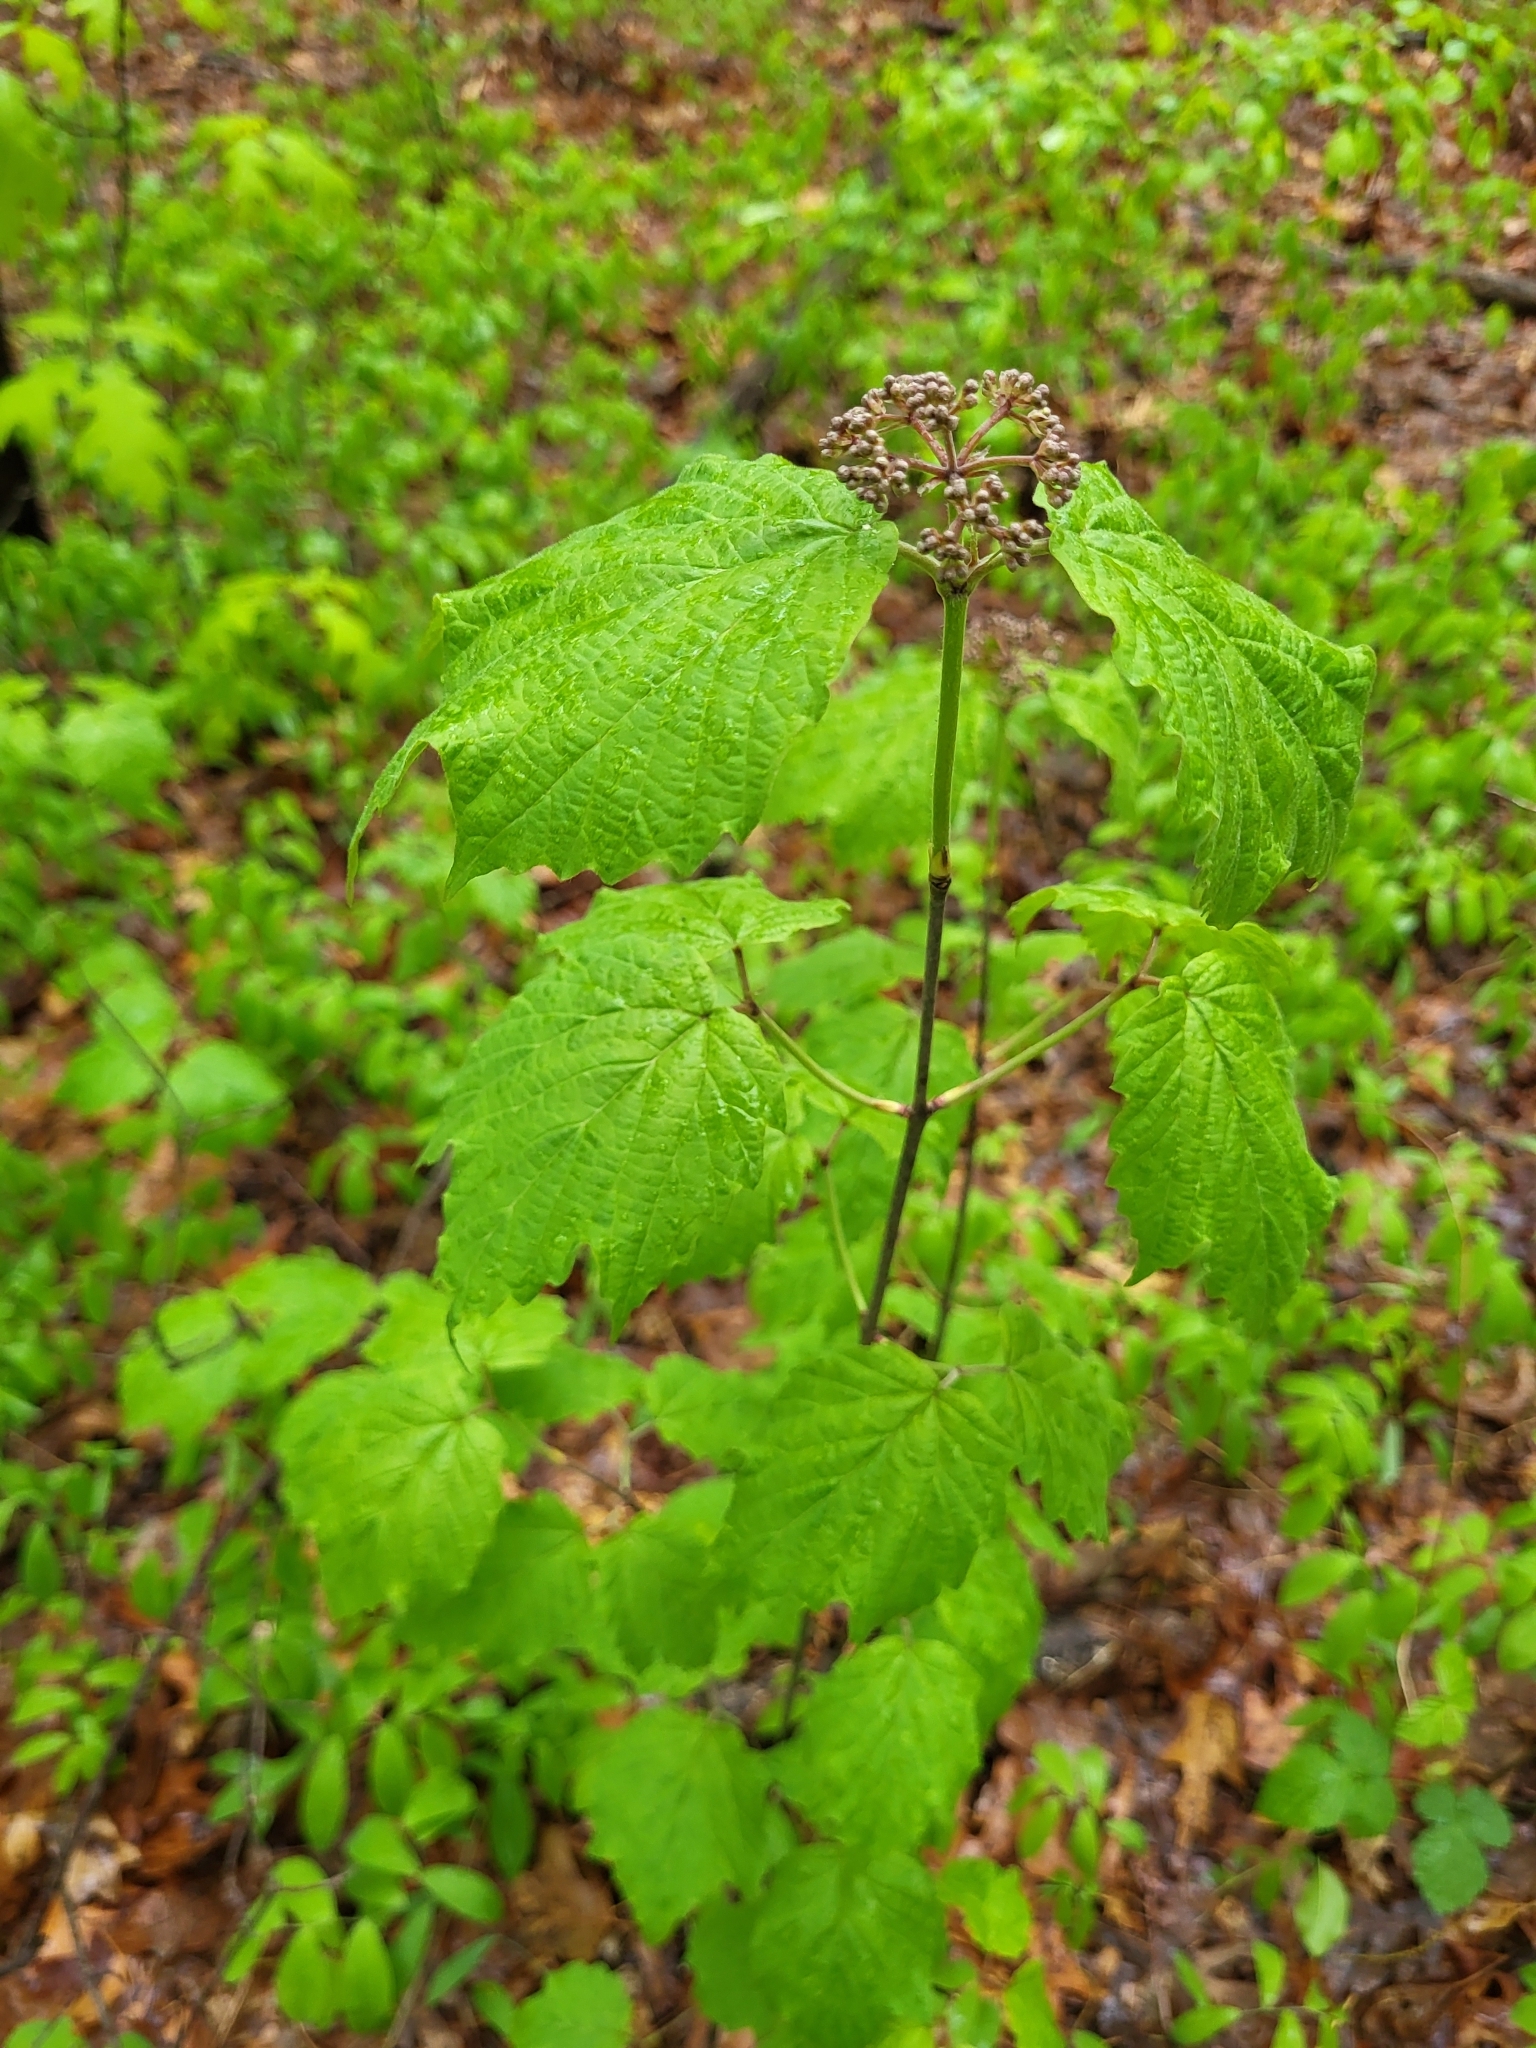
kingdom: Plantae
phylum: Tracheophyta
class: Magnoliopsida
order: Dipsacales
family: Viburnaceae
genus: Viburnum
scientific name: Viburnum acerifolium
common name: Dockmackie
